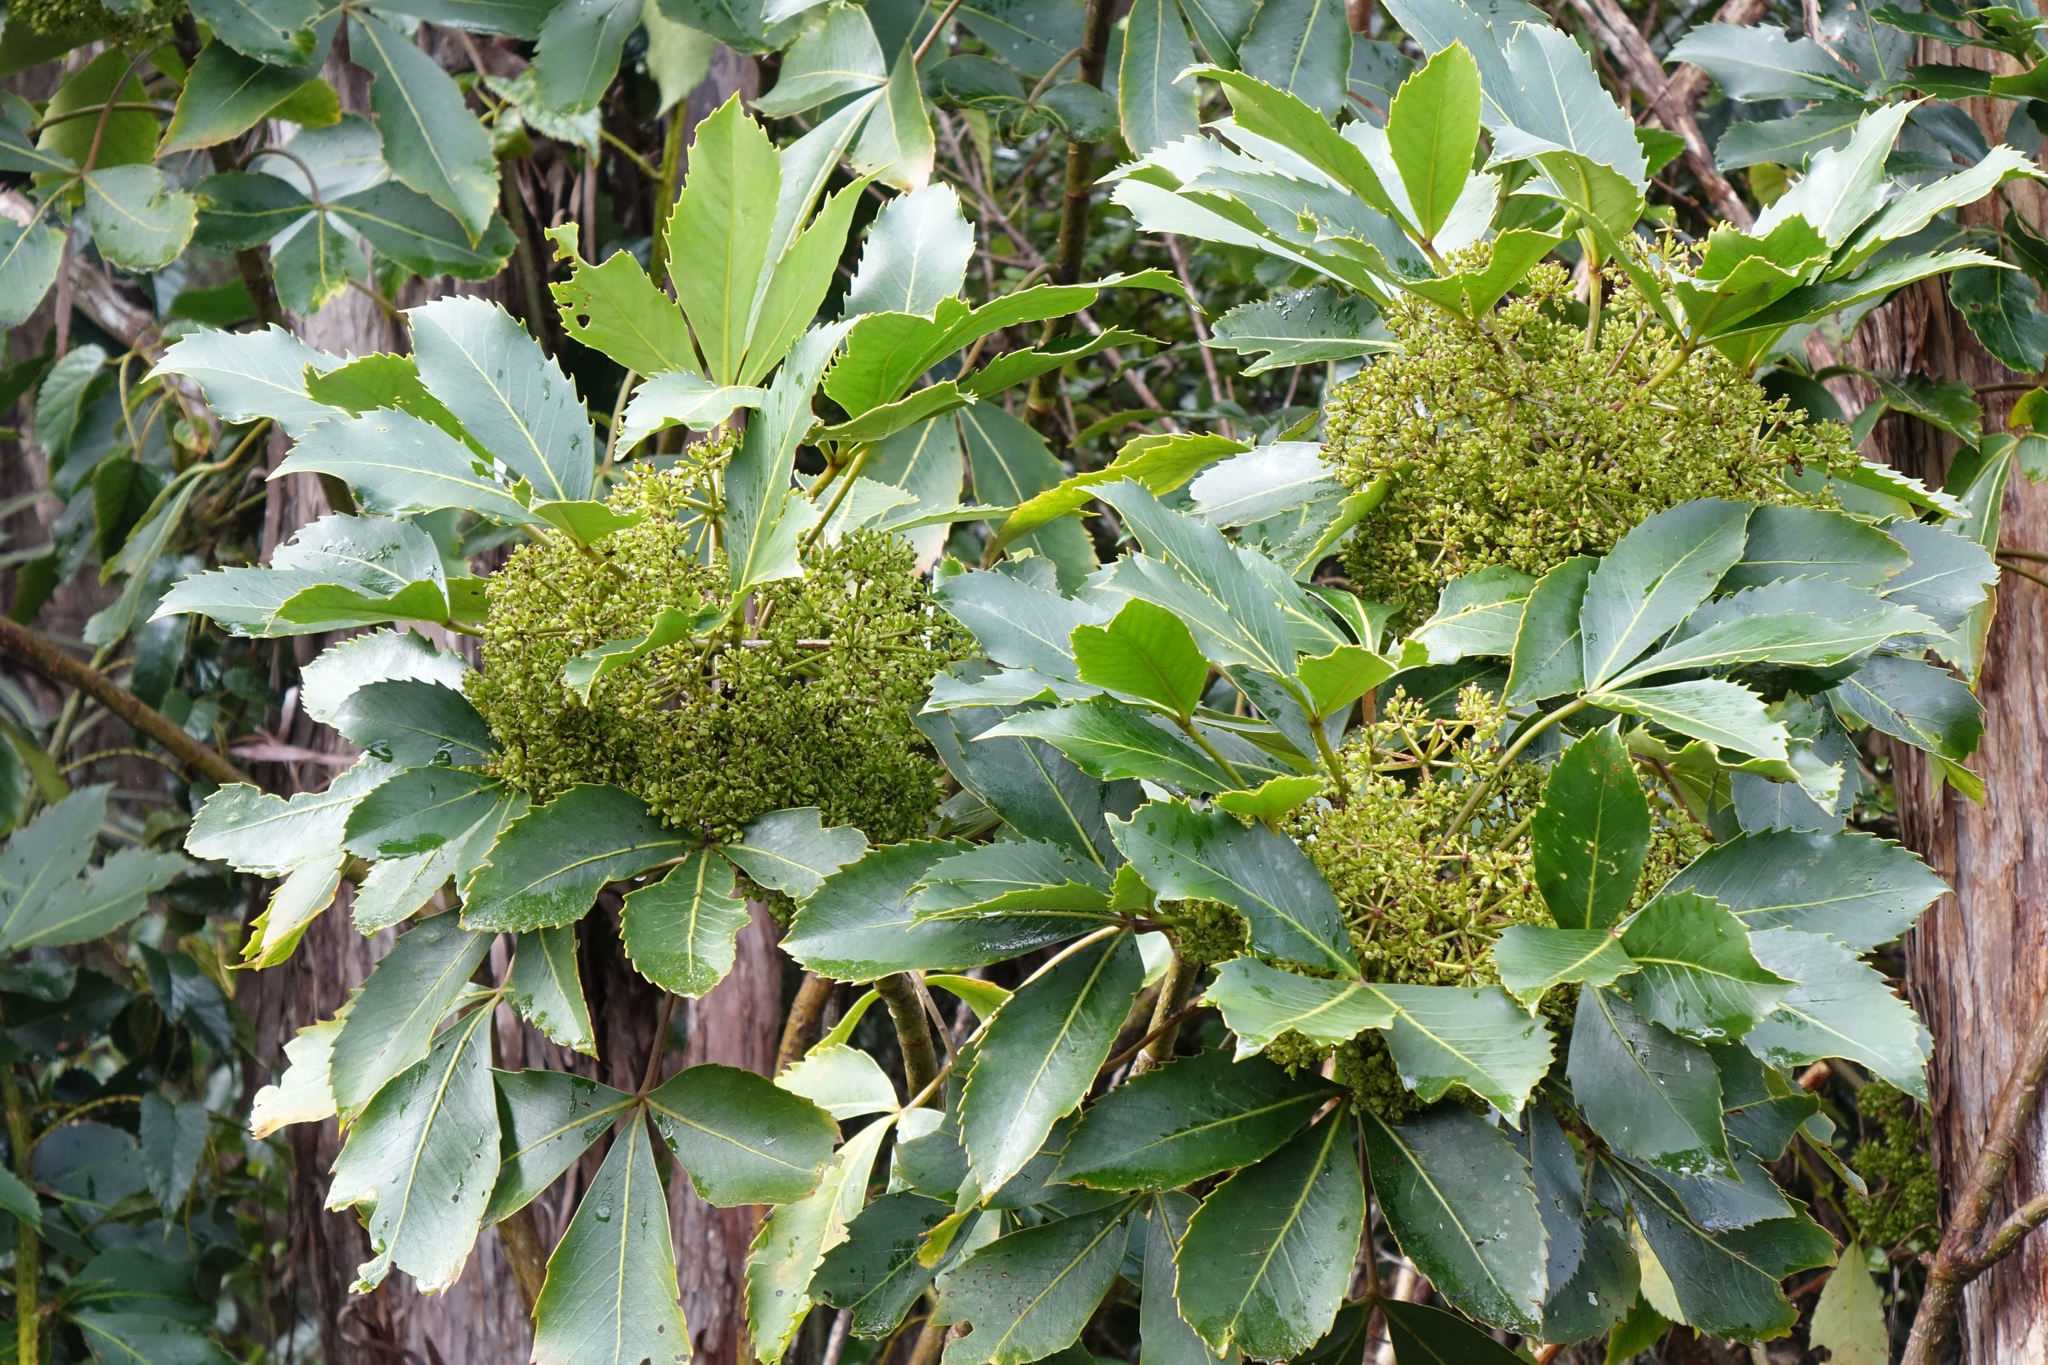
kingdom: Plantae
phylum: Tracheophyta
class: Magnoliopsida
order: Apiales
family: Araliaceae
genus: Neopanax
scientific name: Neopanax colensoi
